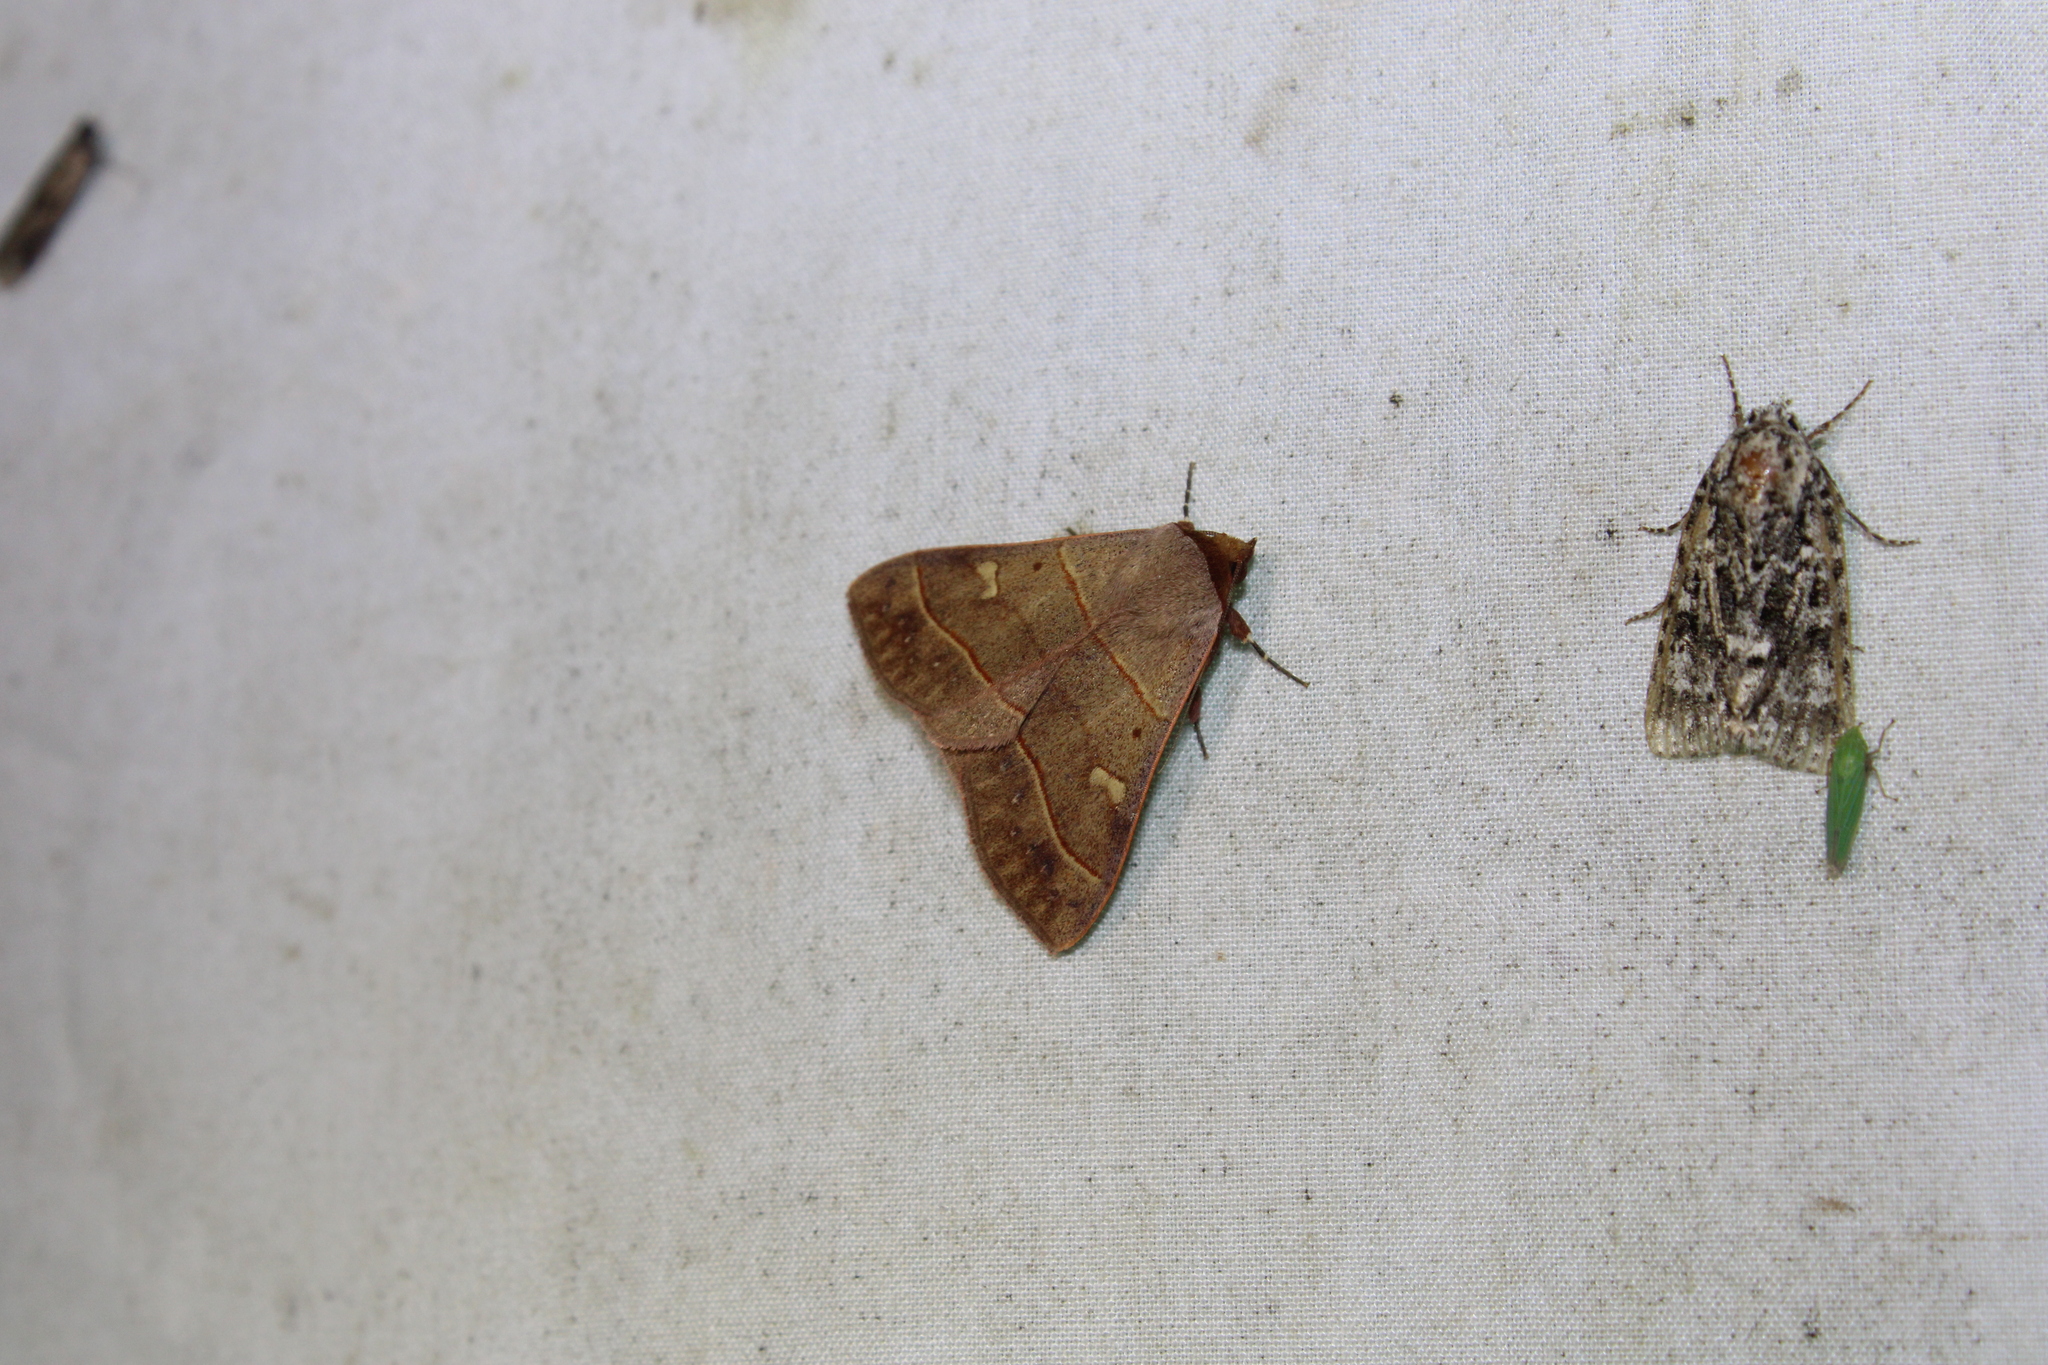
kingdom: Animalia
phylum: Arthropoda
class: Insecta
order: Lepidoptera
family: Erebidae
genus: Panopoda
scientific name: Panopoda rufimargo
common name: Red-lined panopoda moth
